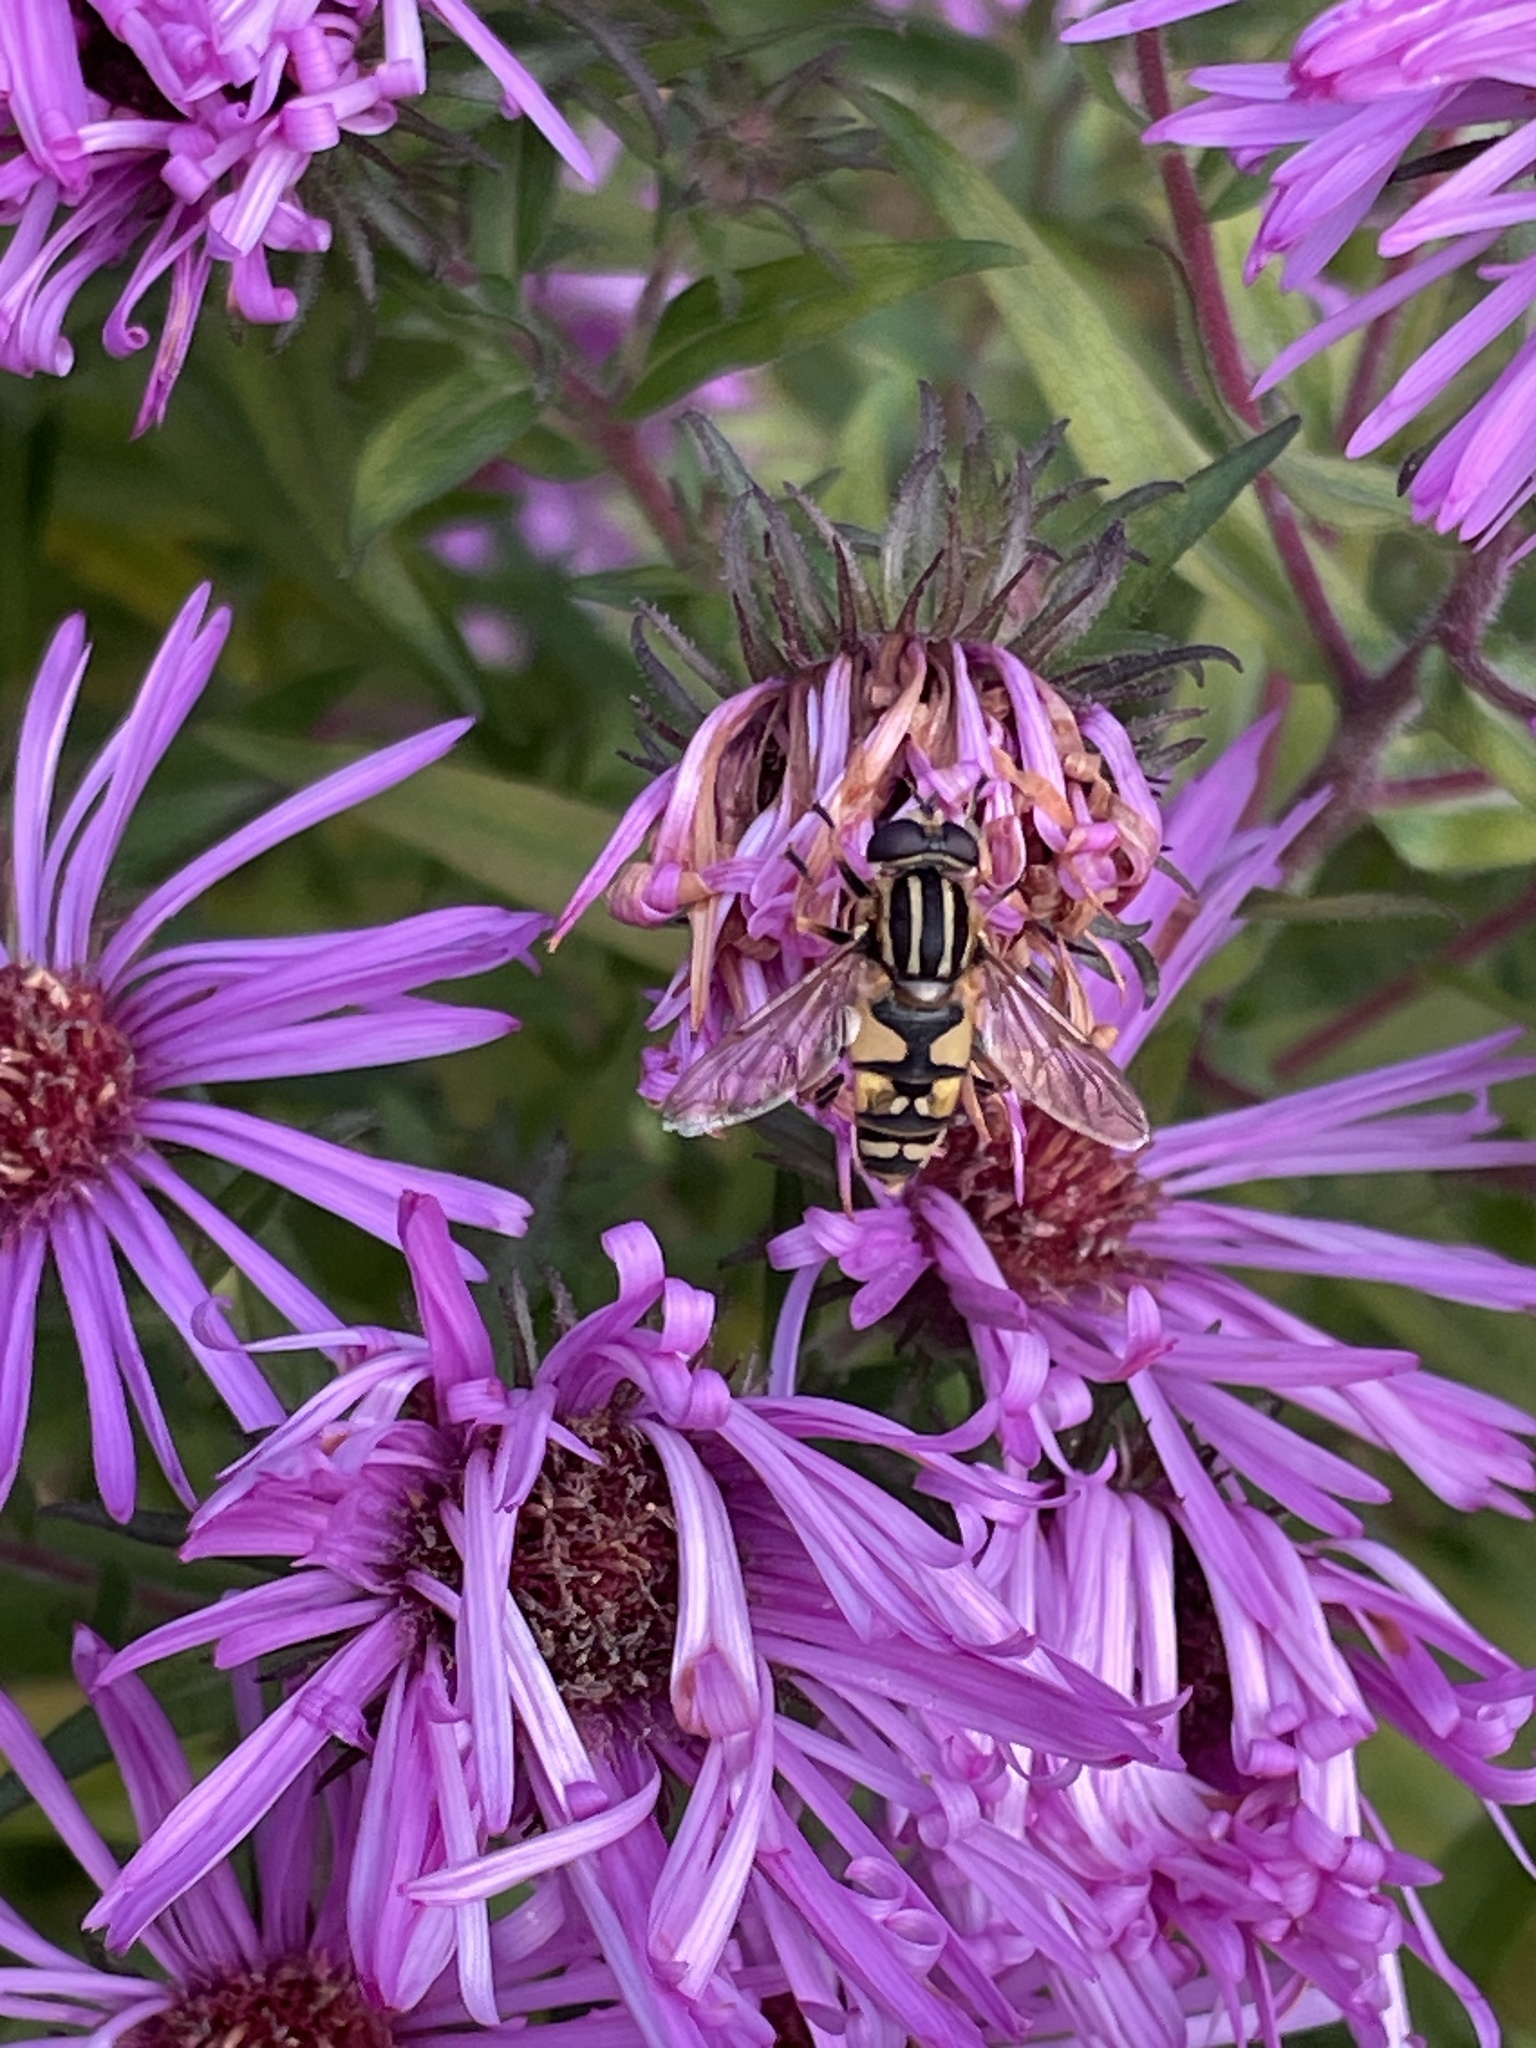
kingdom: Animalia
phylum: Arthropoda
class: Insecta
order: Diptera
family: Syrphidae
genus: Helophilus
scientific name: Helophilus pendulus
